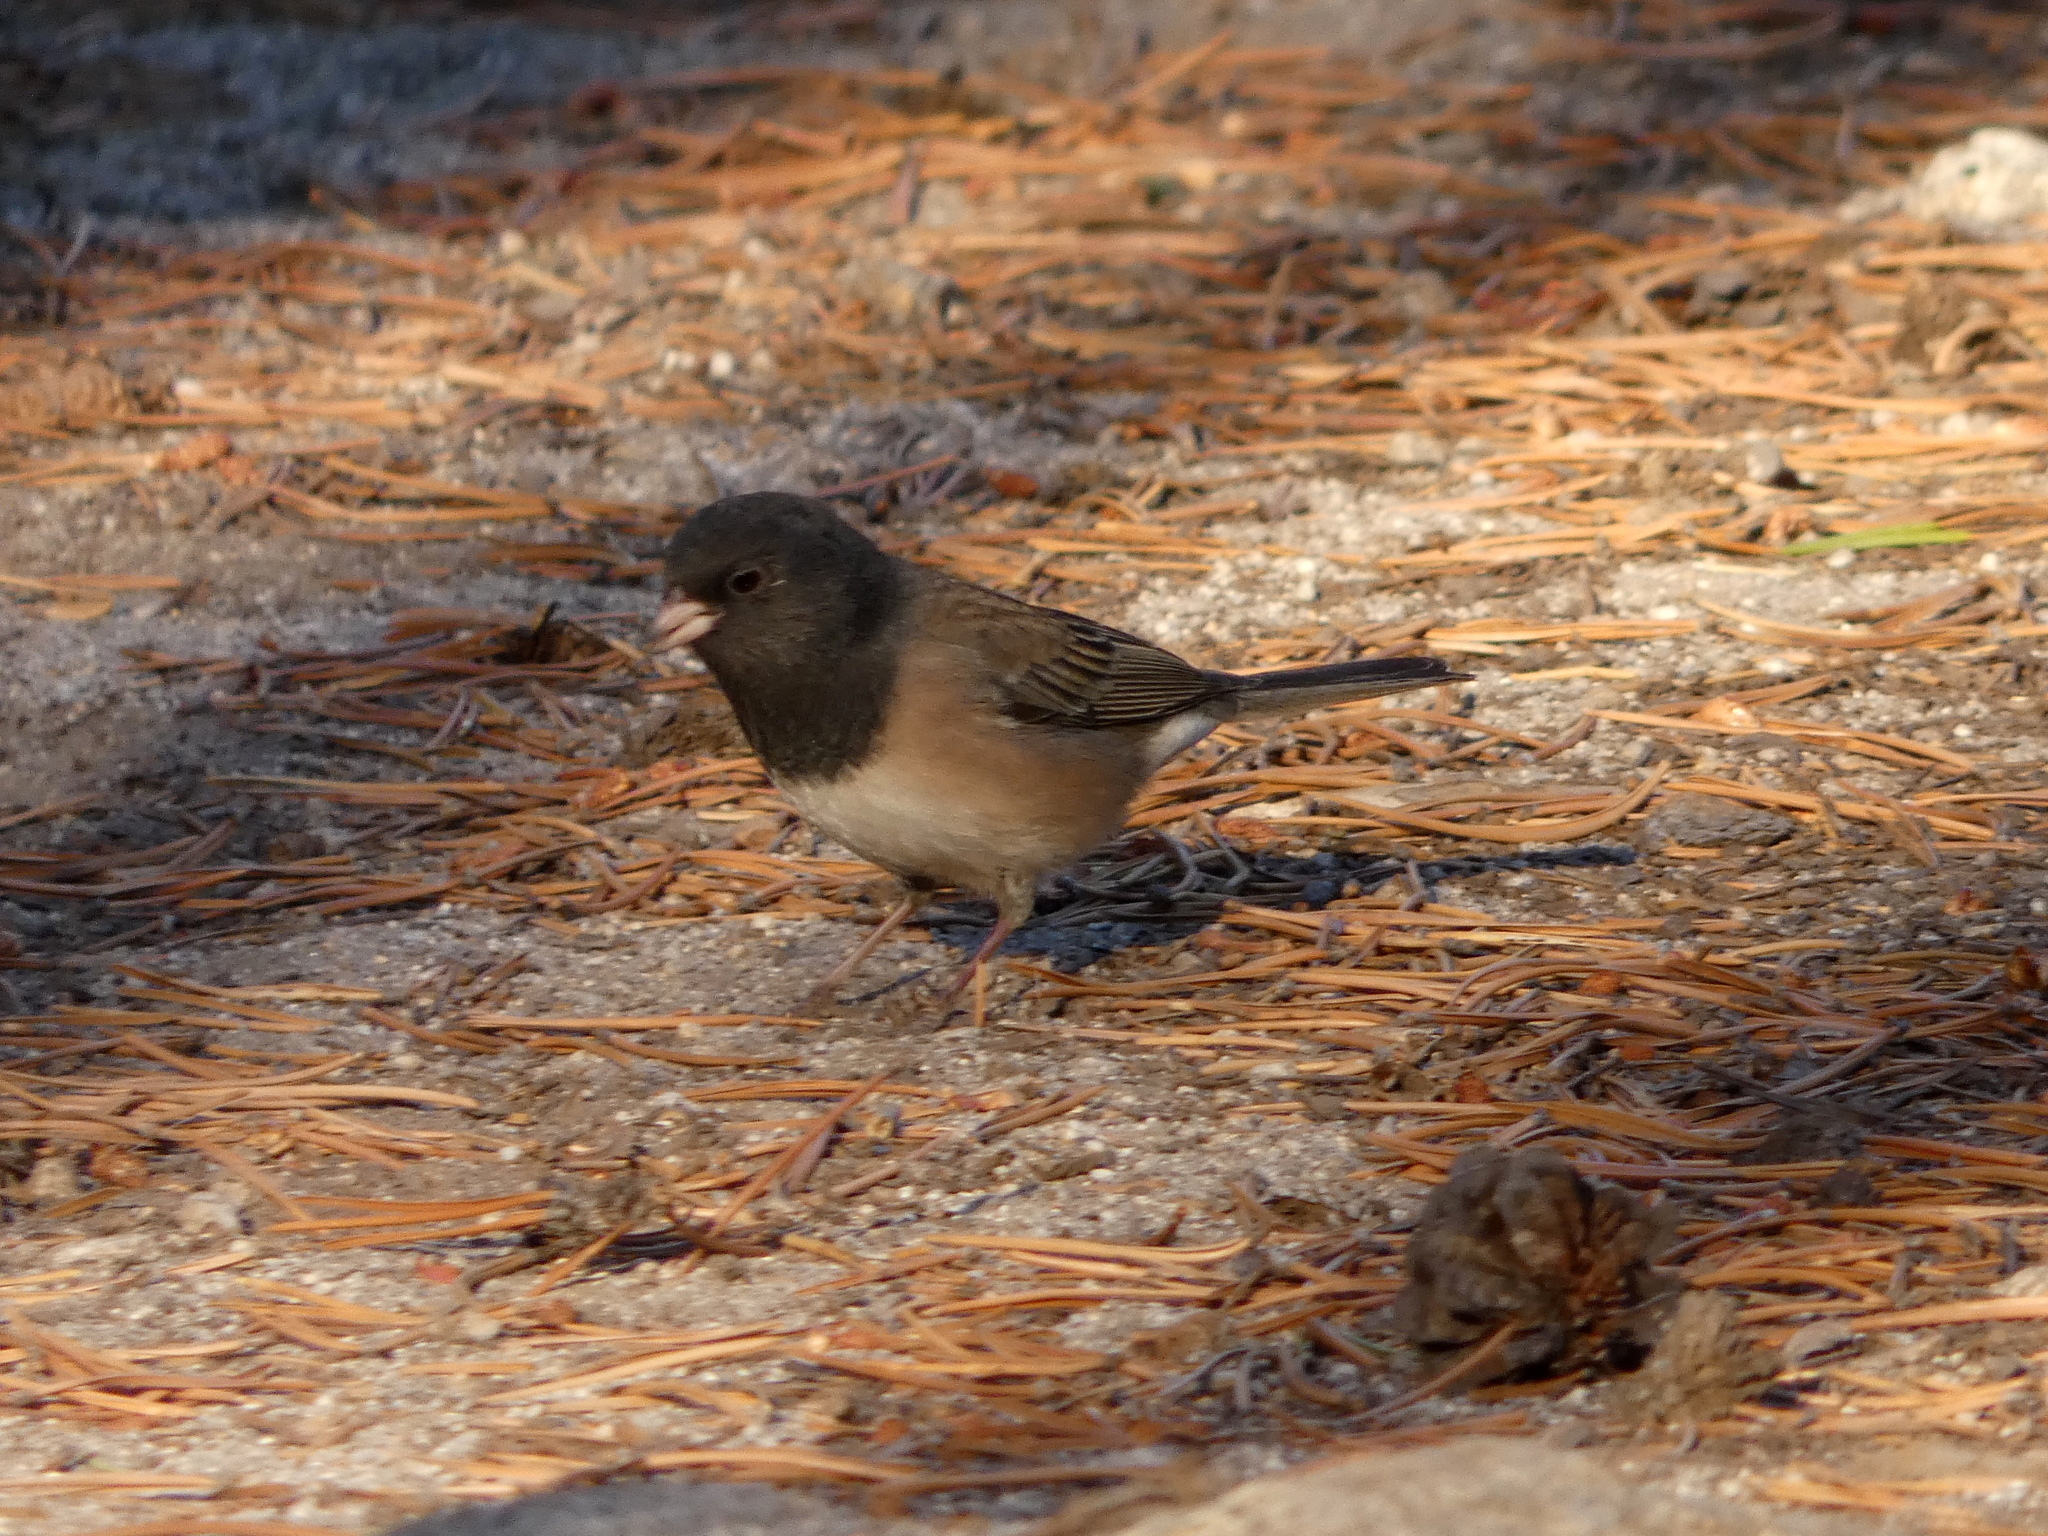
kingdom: Animalia
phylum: Chordata
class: Aves
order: Passeriformes
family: Passerellidae
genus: Junco
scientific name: Junco hyemalis
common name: Dark-eyed junco
